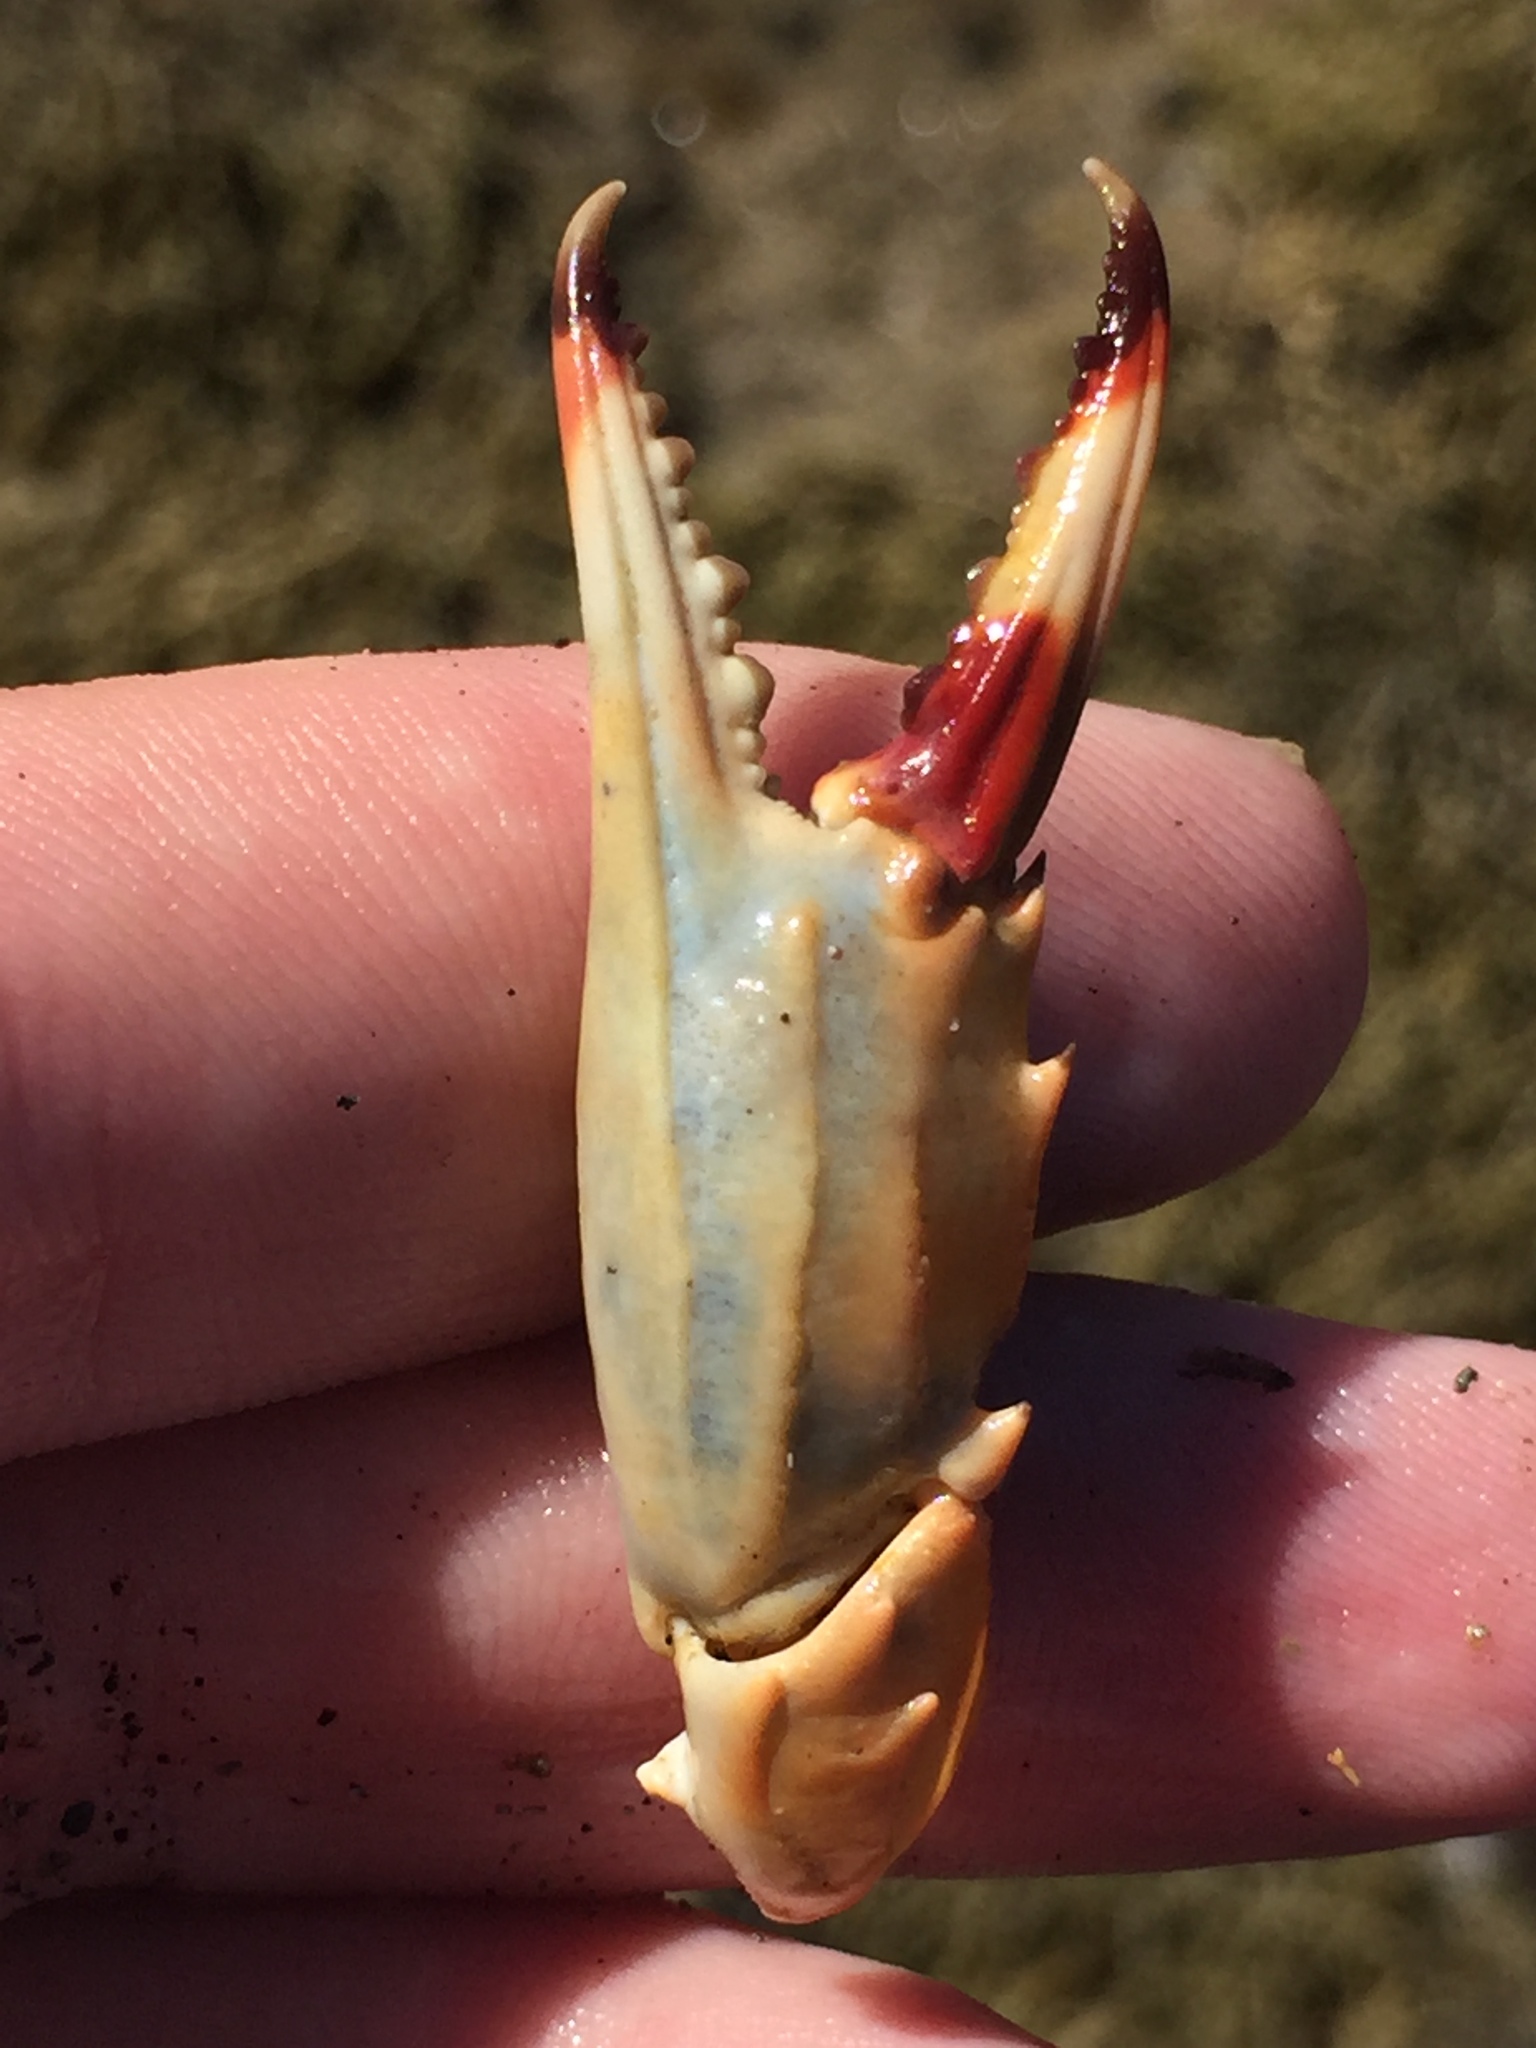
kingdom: Animalia
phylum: Arthropoda
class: Malacostraca
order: Decapoda
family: Portunidae
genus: Charybdis
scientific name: Charybdis japonica
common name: Asian paddle crab
